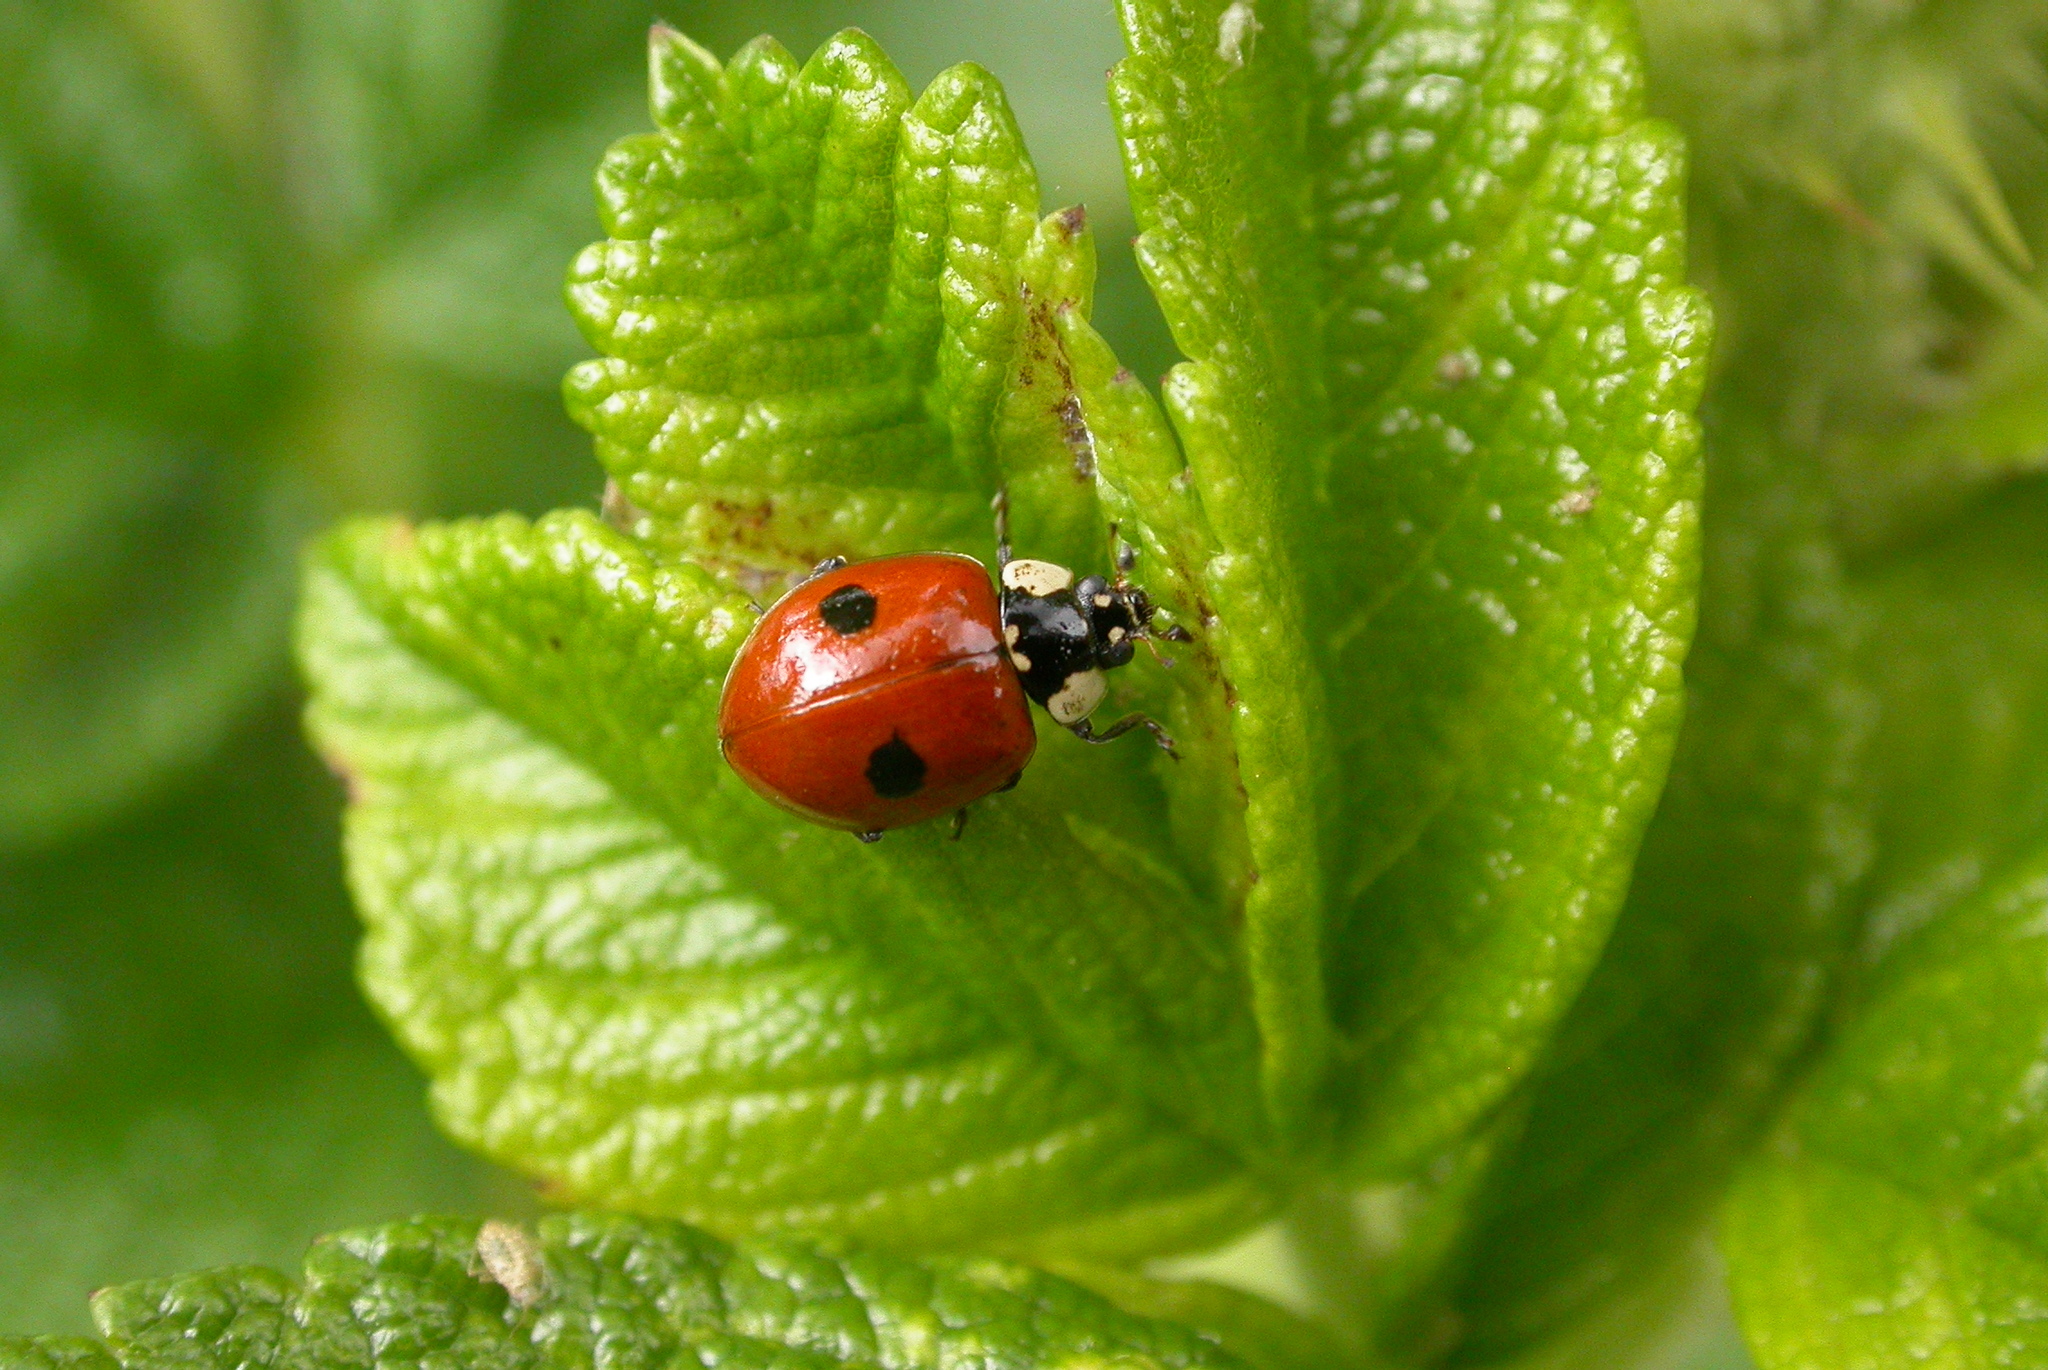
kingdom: Animalia
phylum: Arthropoda
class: Insecta
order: Coleoptera
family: Coccinellidae
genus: Adalia
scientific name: Adalia bipunctata
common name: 2-spot ladybird
